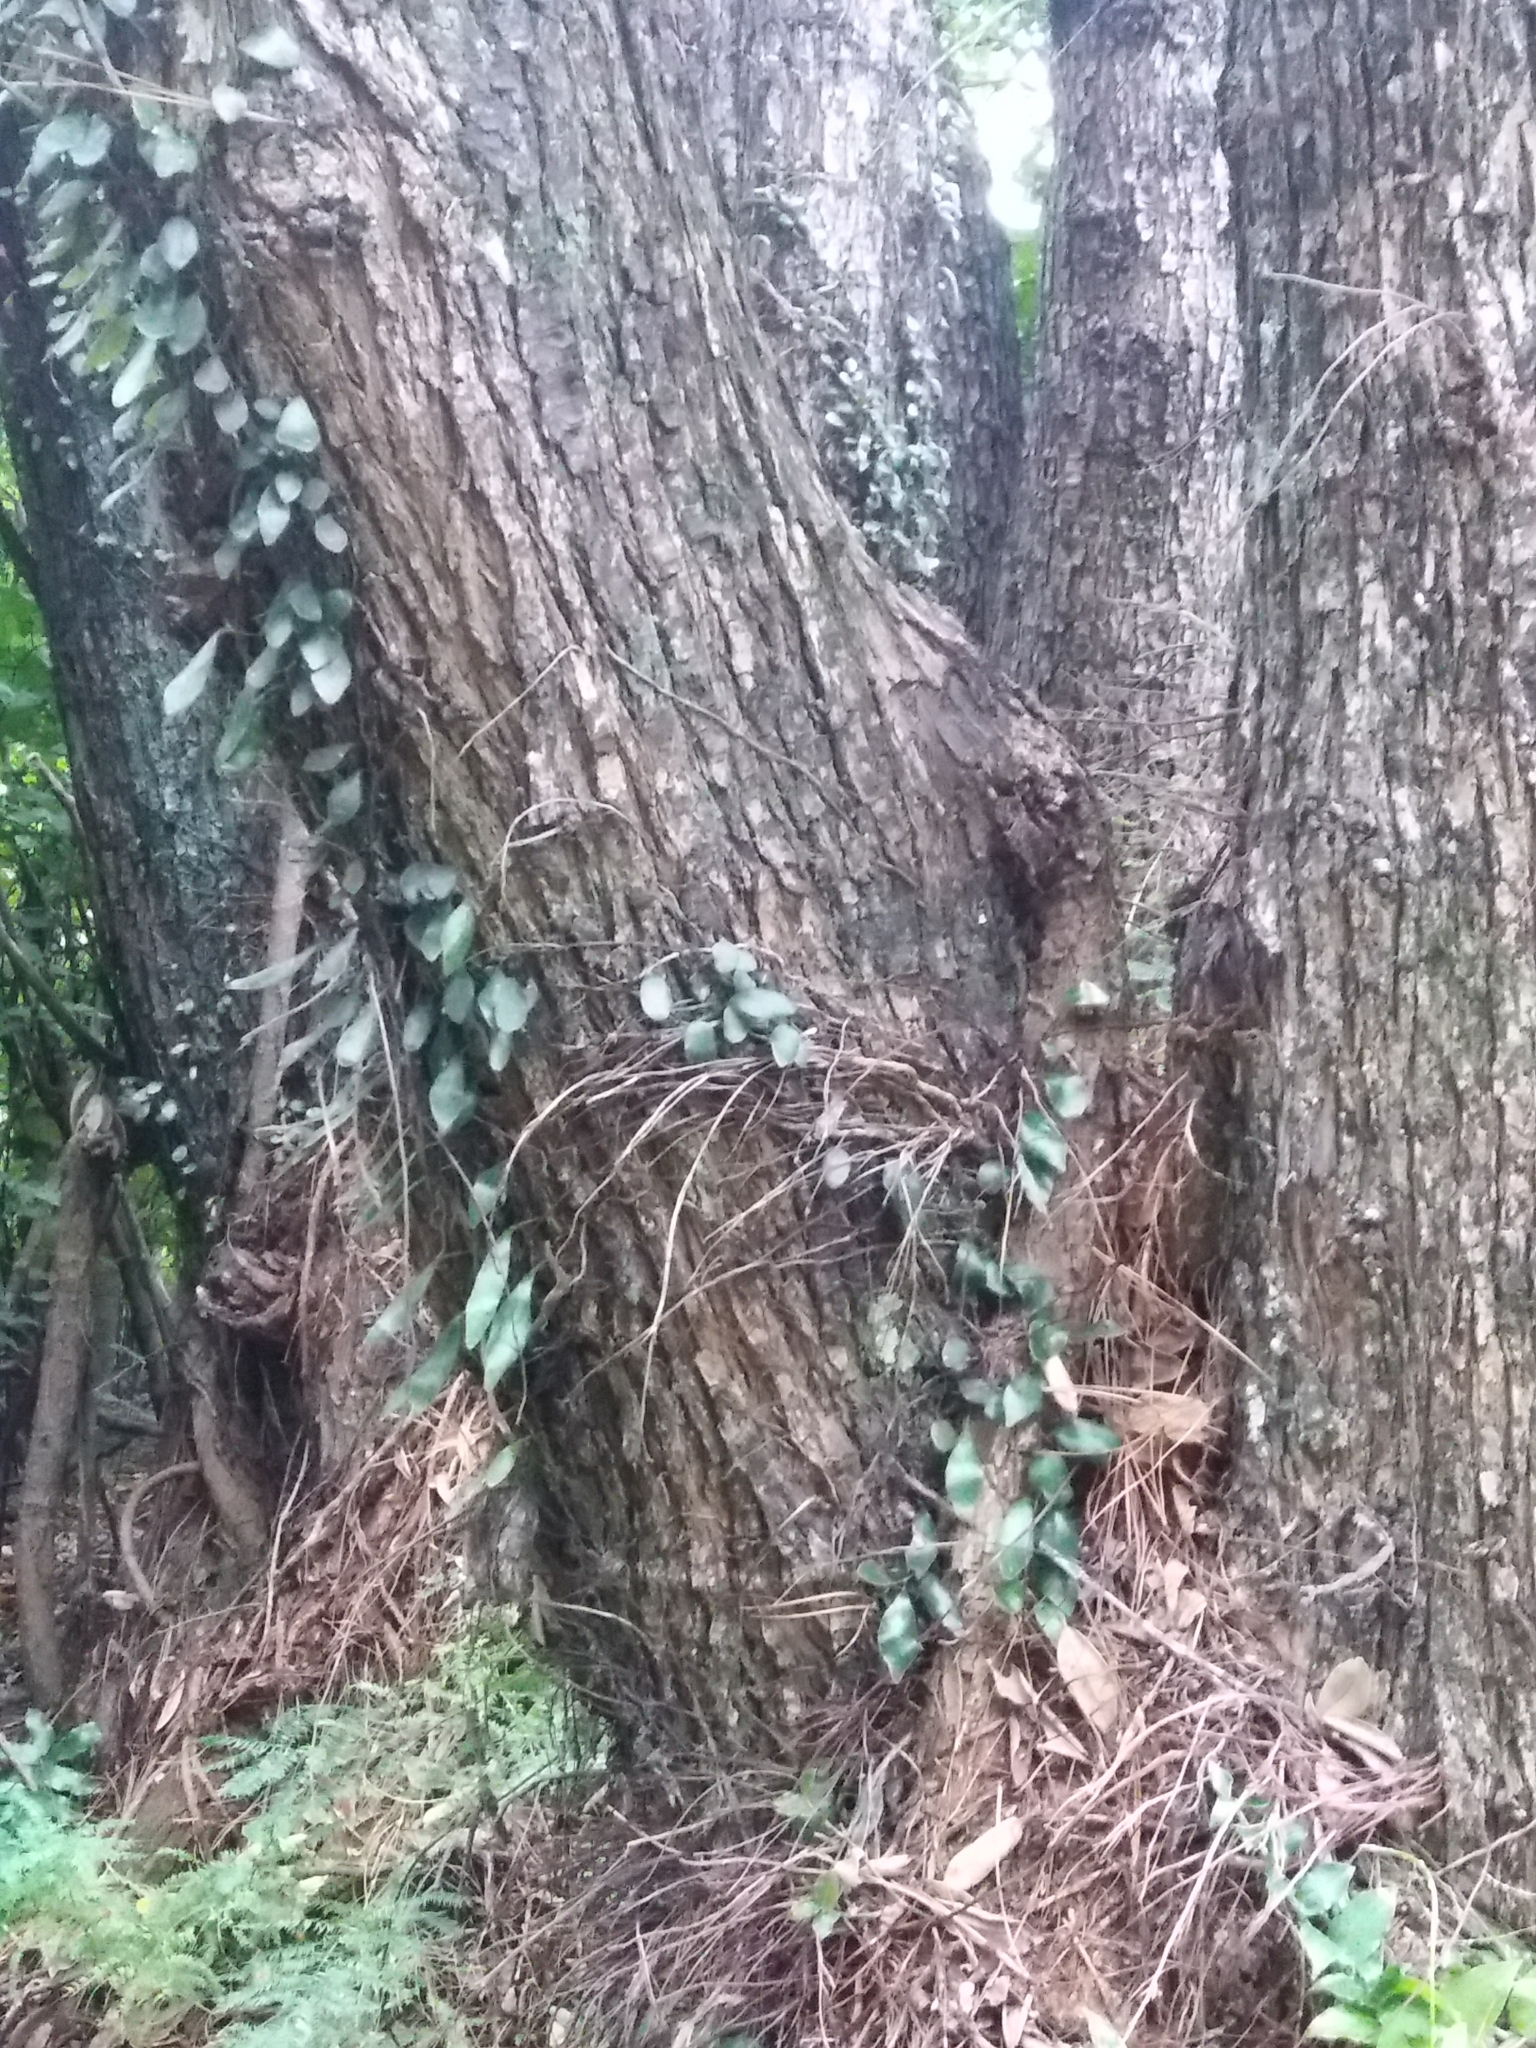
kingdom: Plantae
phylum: Tracheophyta
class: Polypodiopsida
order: Polypodiales
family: Polypodiaceae
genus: Pyrrosia
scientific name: Pyrrosia eleagnifolia
